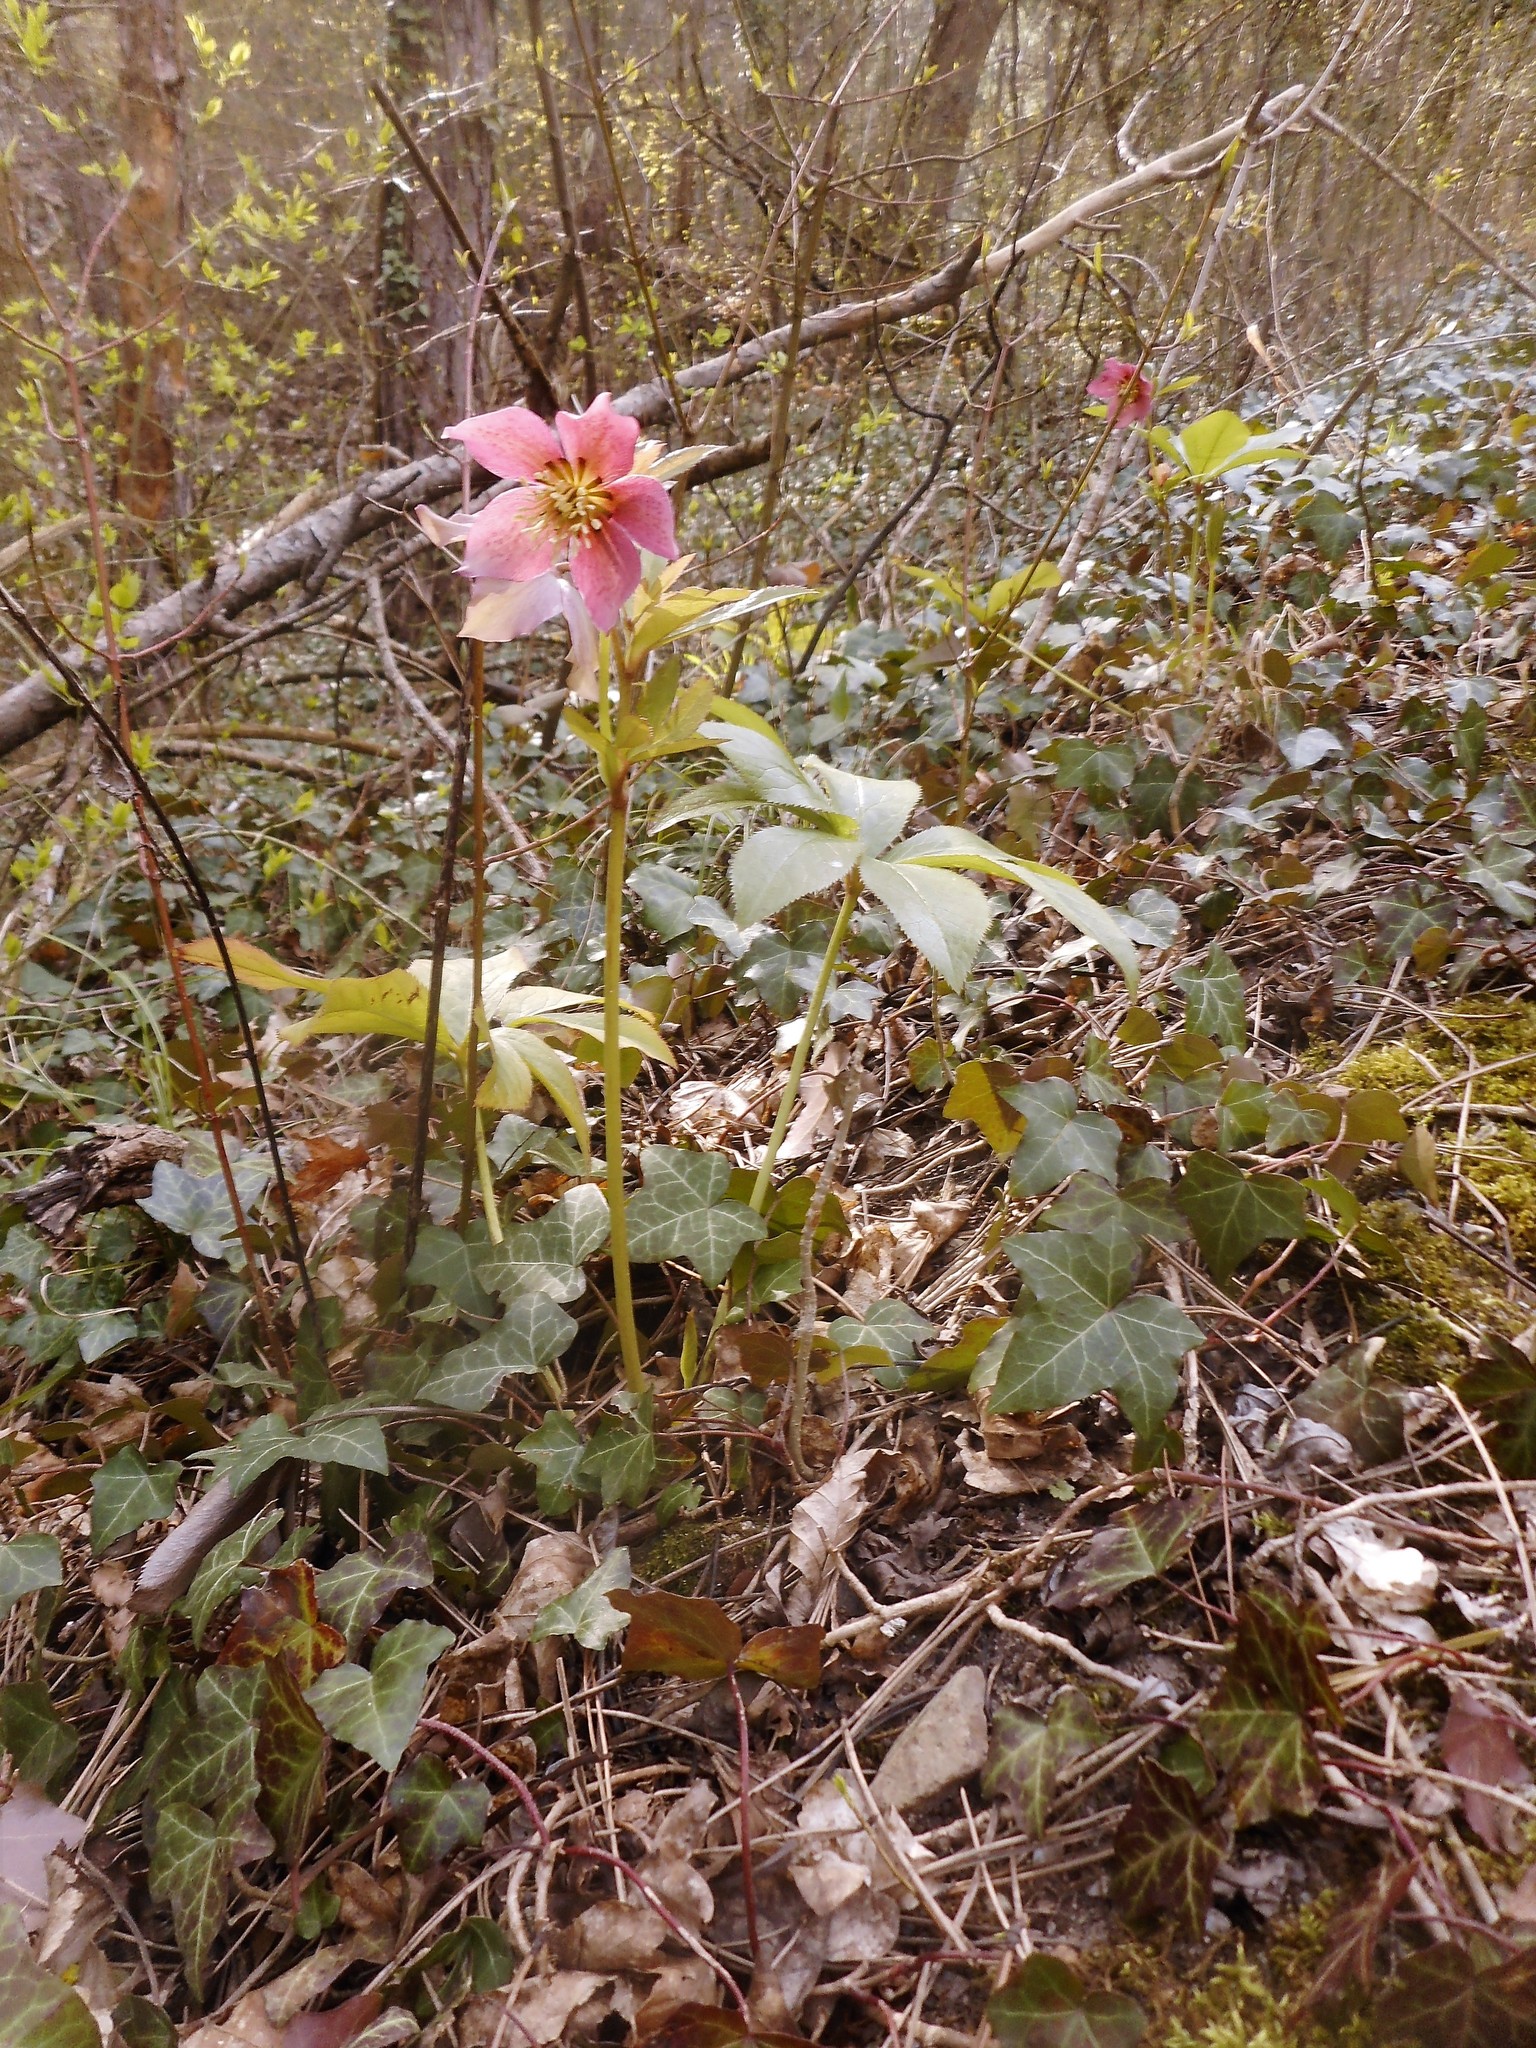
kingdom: Plantae
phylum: Tracheophyta
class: Magnoliopsida
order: Ranunculales
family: Ranunculaceae
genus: Helleborus
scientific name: Helleborus hybridus
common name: Hybrid lenten-rose
